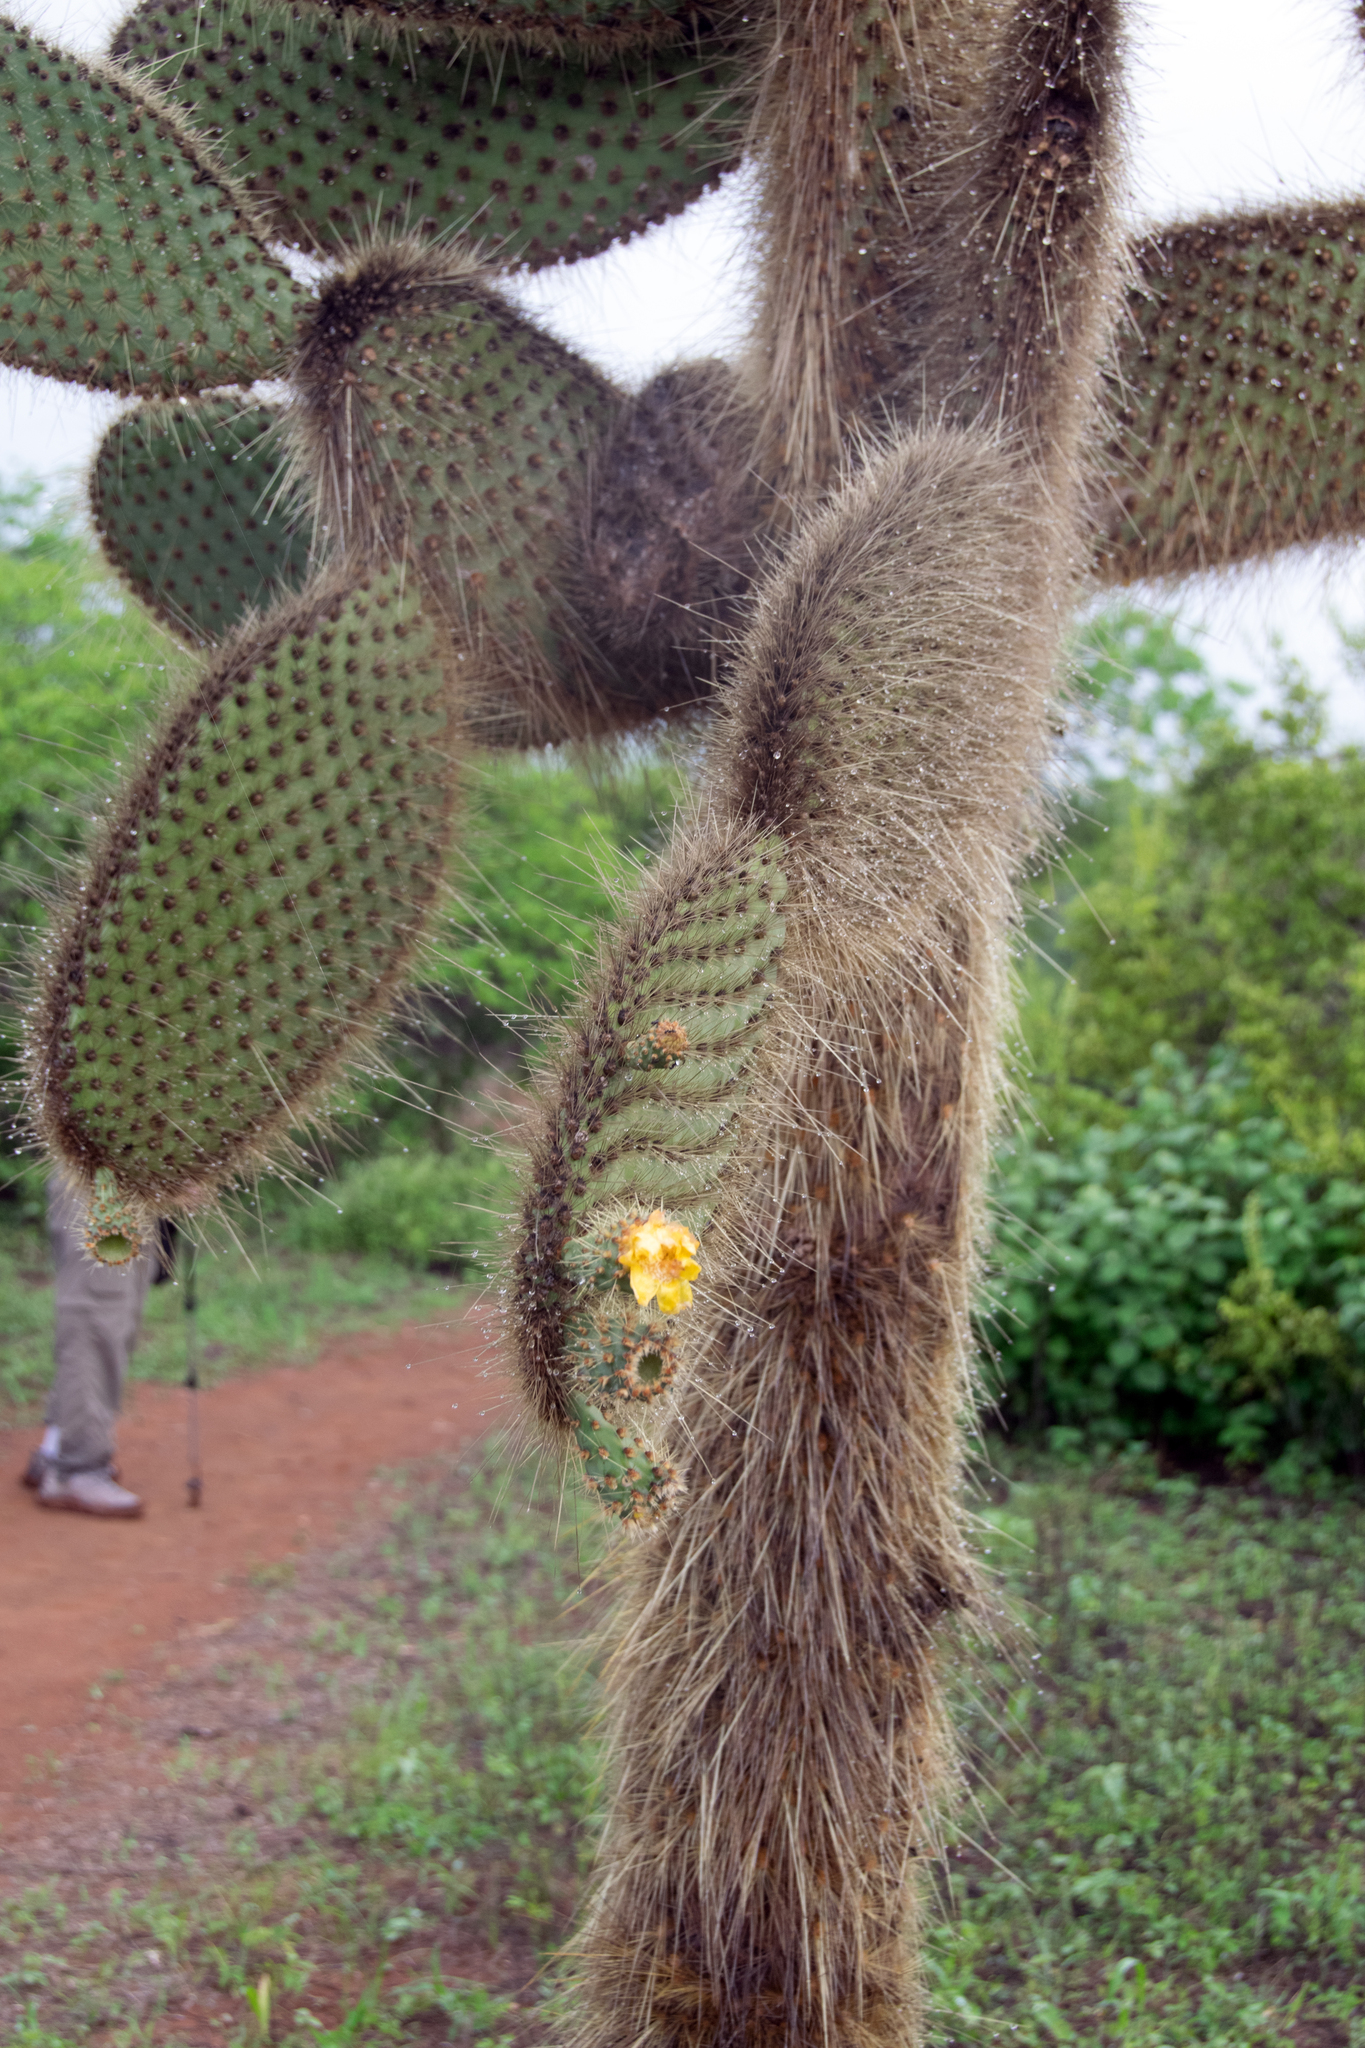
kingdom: Plantae
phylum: Tracheophyta
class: Magnoliopsida
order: Caryophyllales
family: Cactaceae
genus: Opuntia
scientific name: Opuntia galapageia
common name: Galápagos prickly pear
